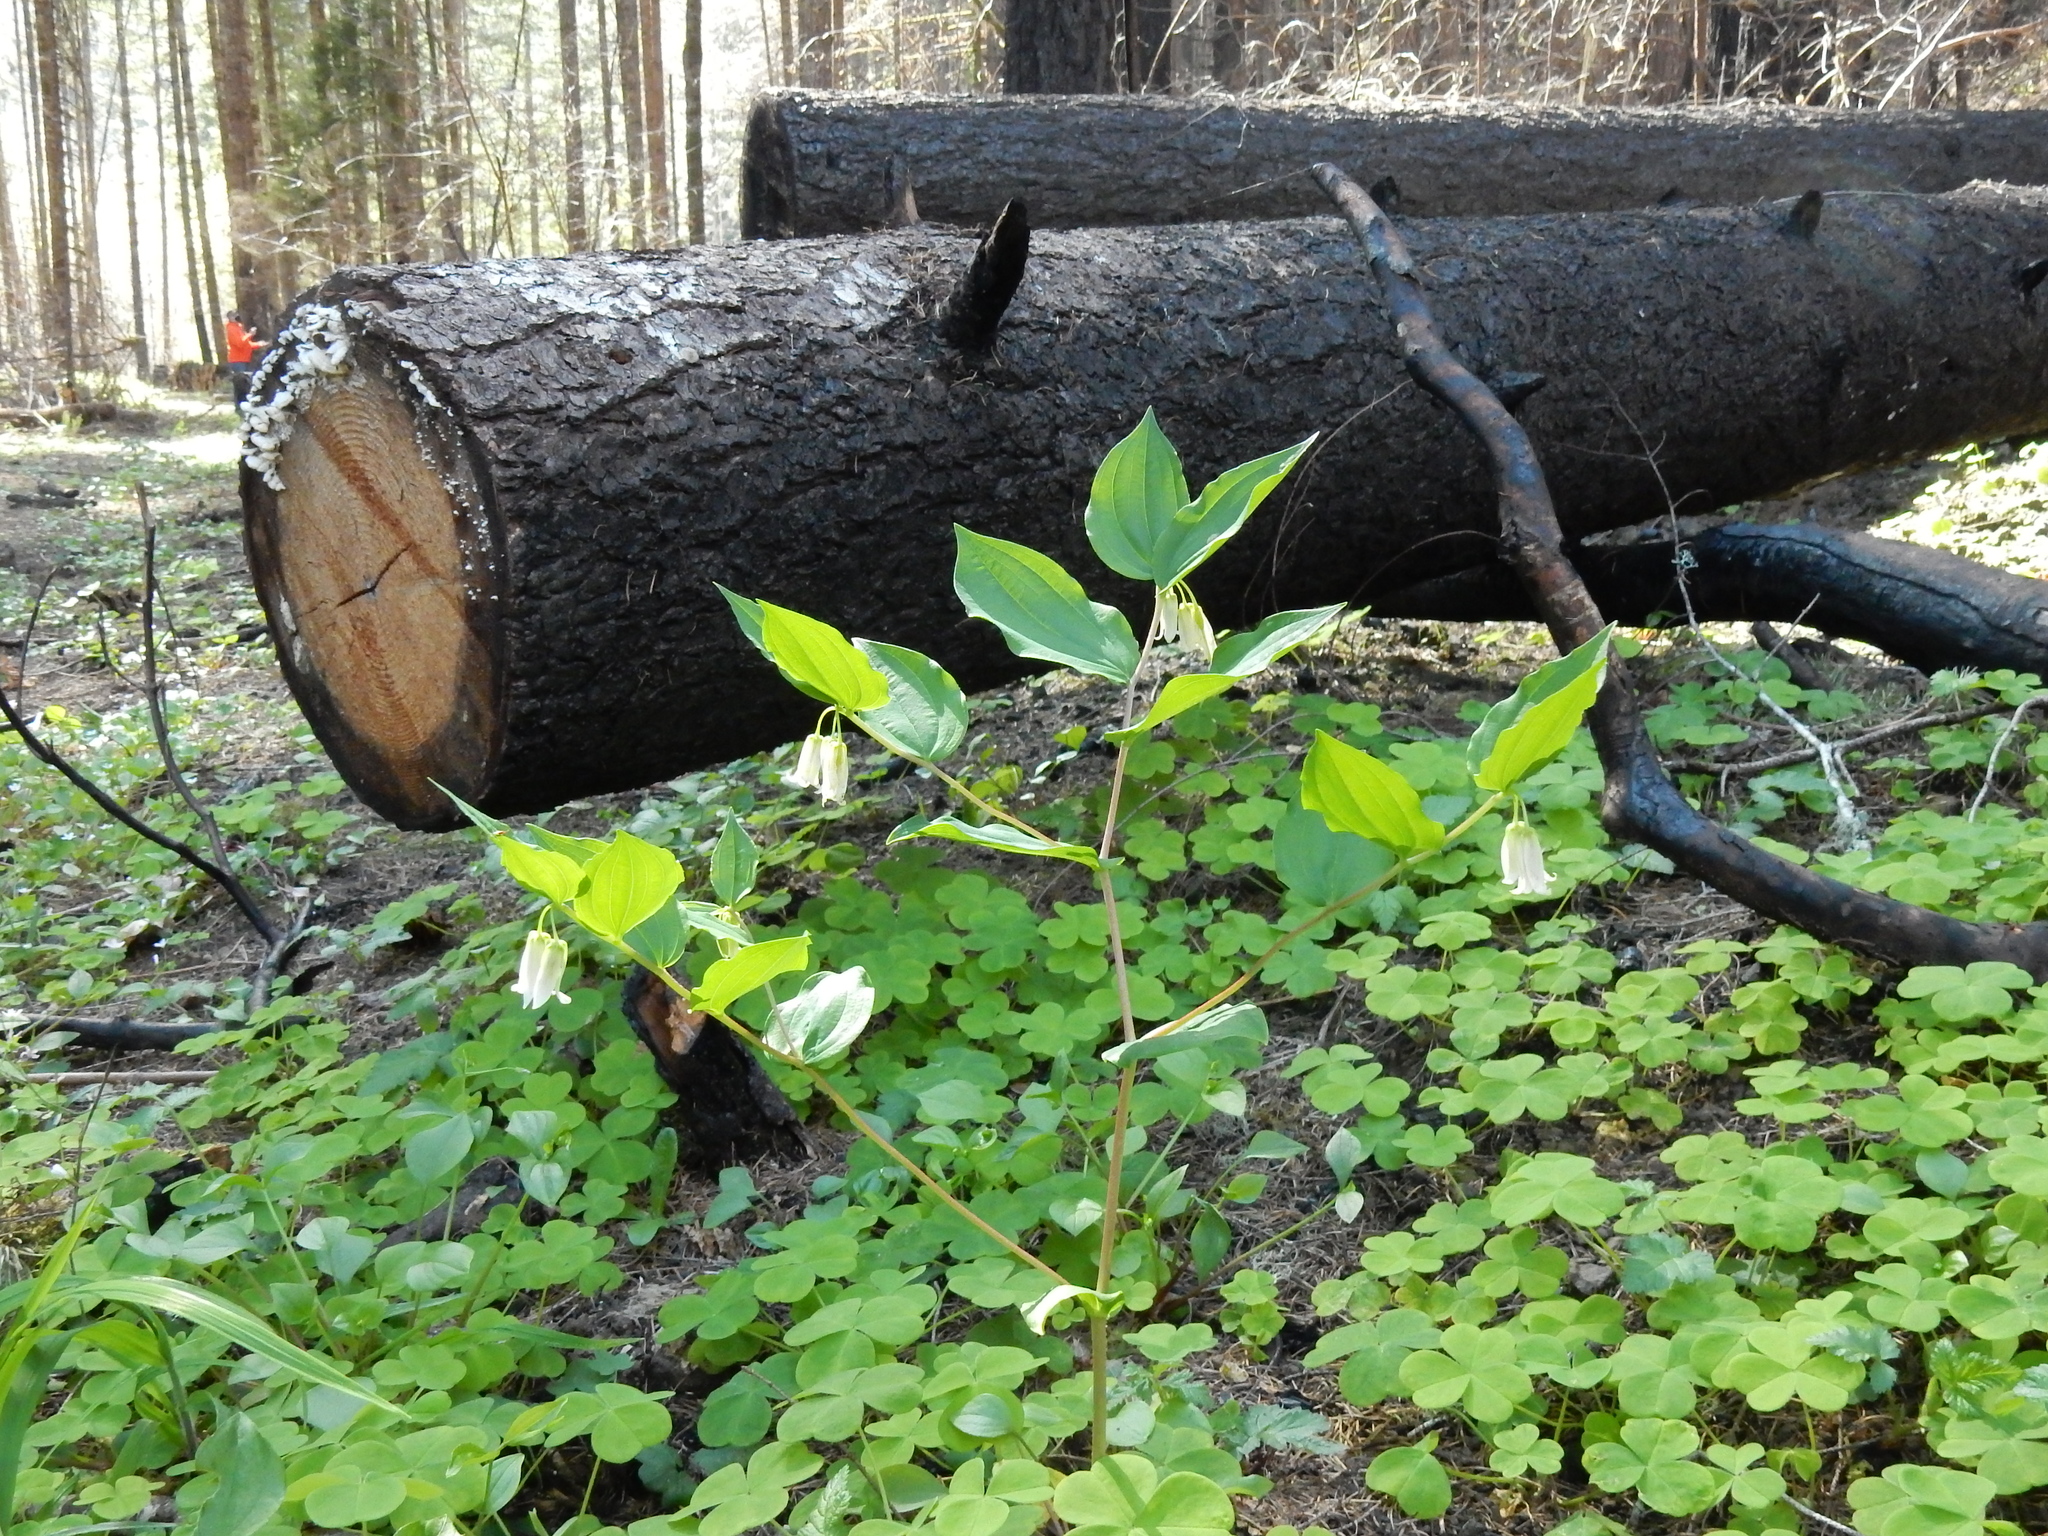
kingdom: Plantae
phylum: Tracheophyta
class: Liliopsida
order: Liliales
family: Liliaceae
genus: Prosartes
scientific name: Prosartes smithii
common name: Fairy-lantern
